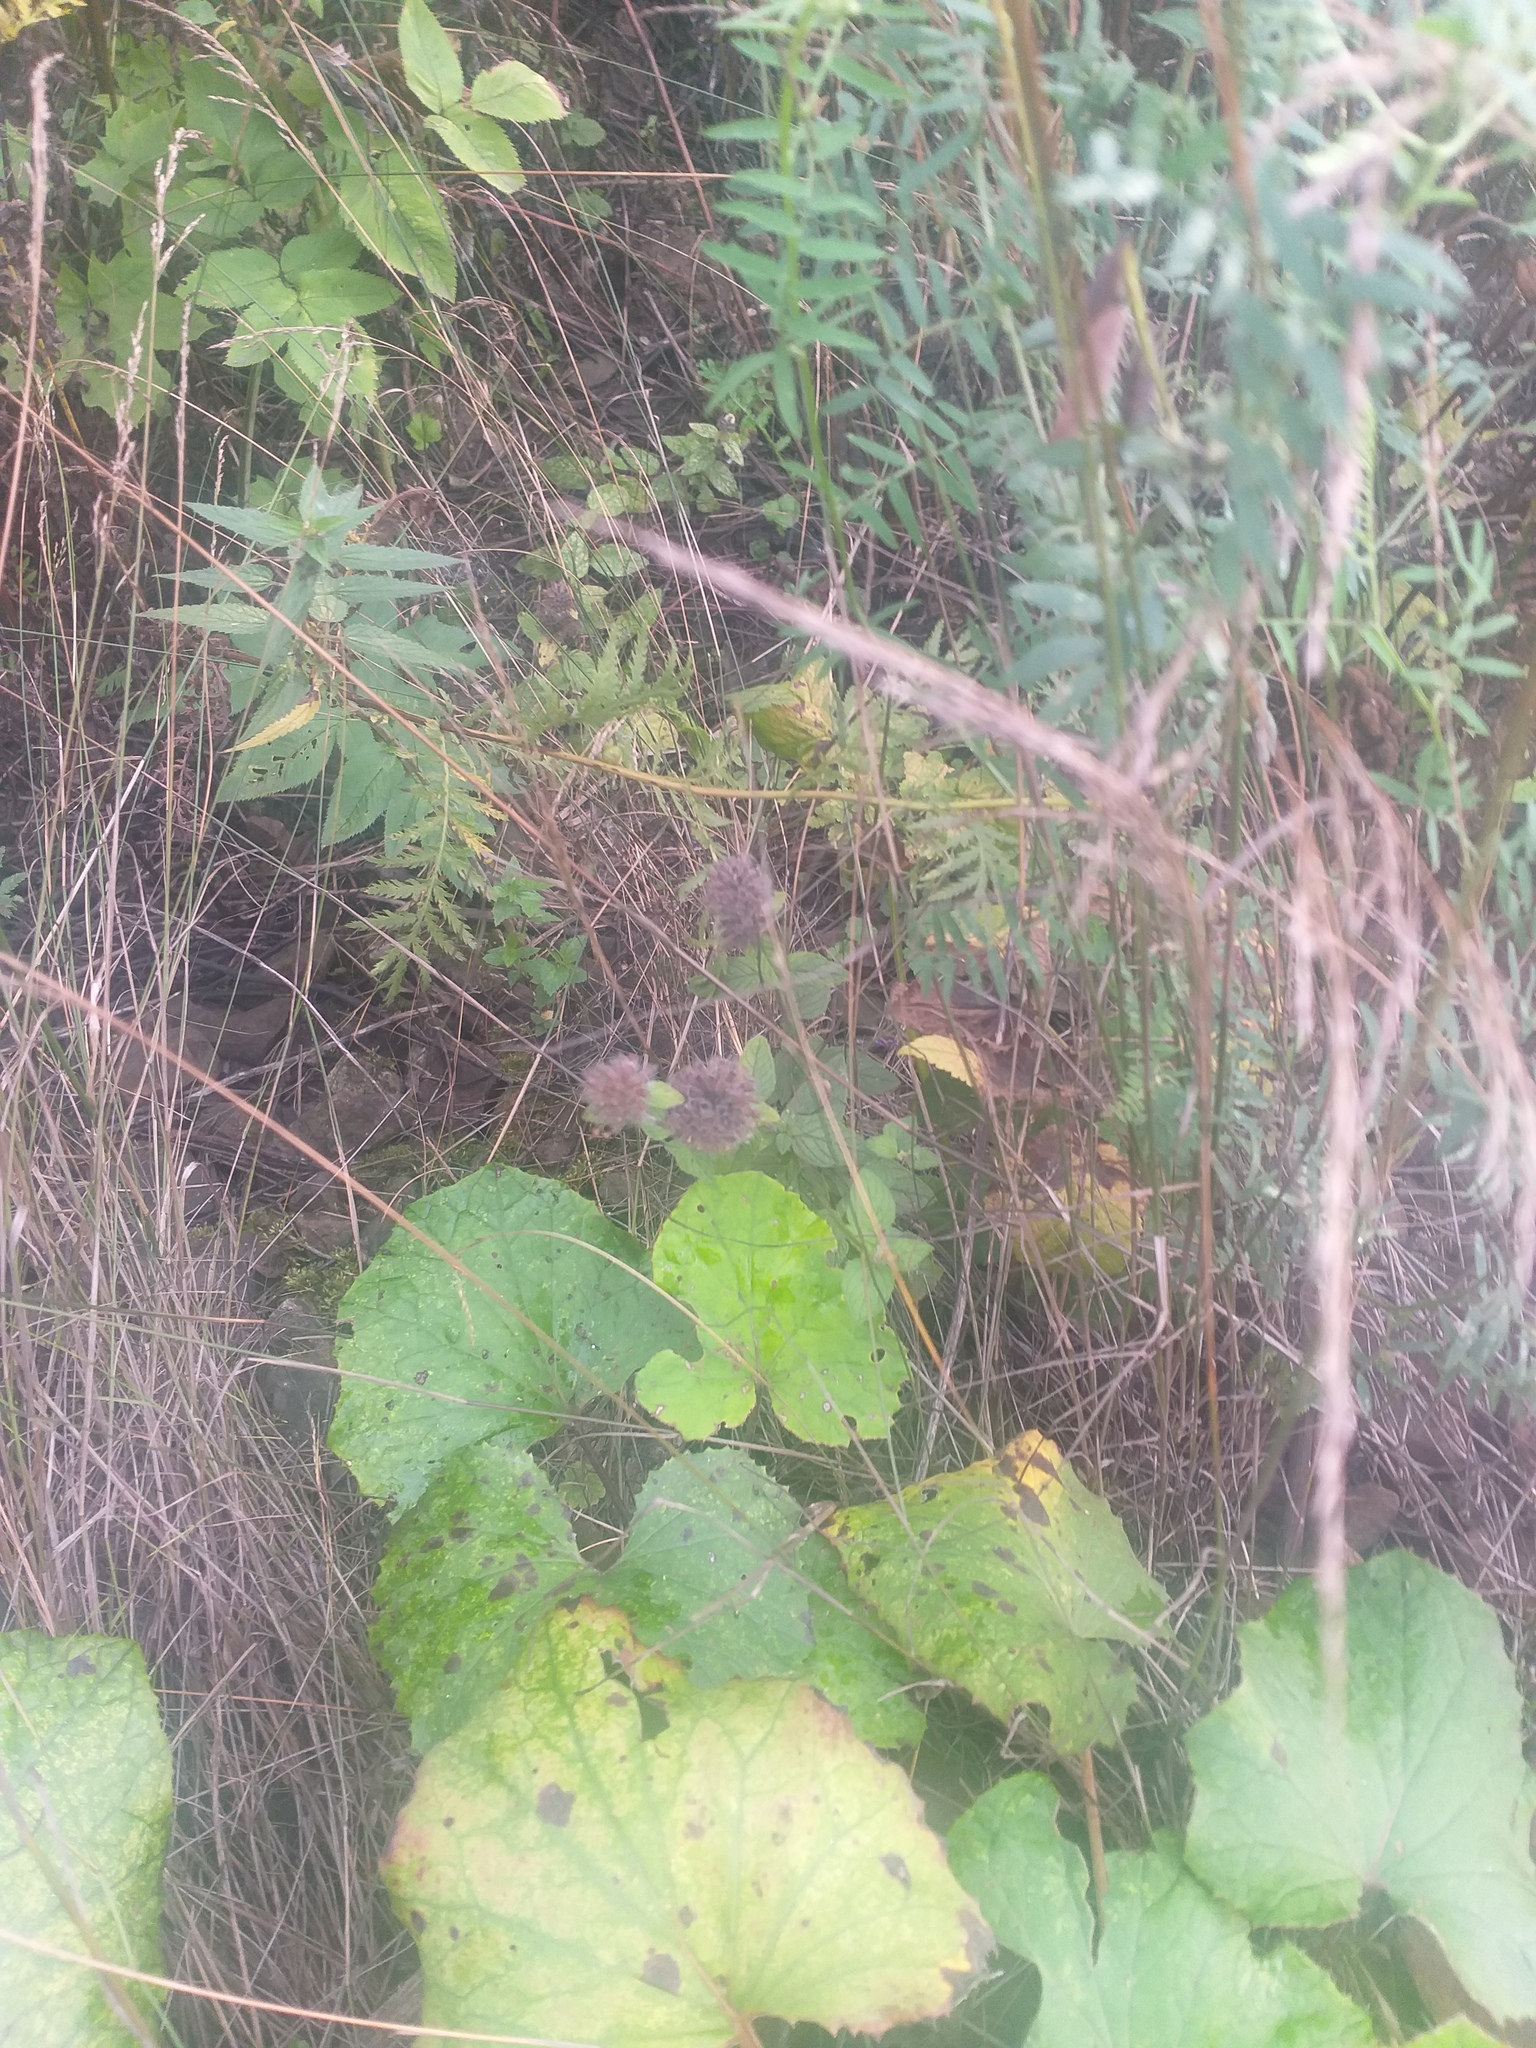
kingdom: Plantae
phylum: Tracheophyta
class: Magnoliopsida
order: Lamiales
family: Lamiaceae
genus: Clinopodium
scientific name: Clinopodium vulgare
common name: Wild basil
